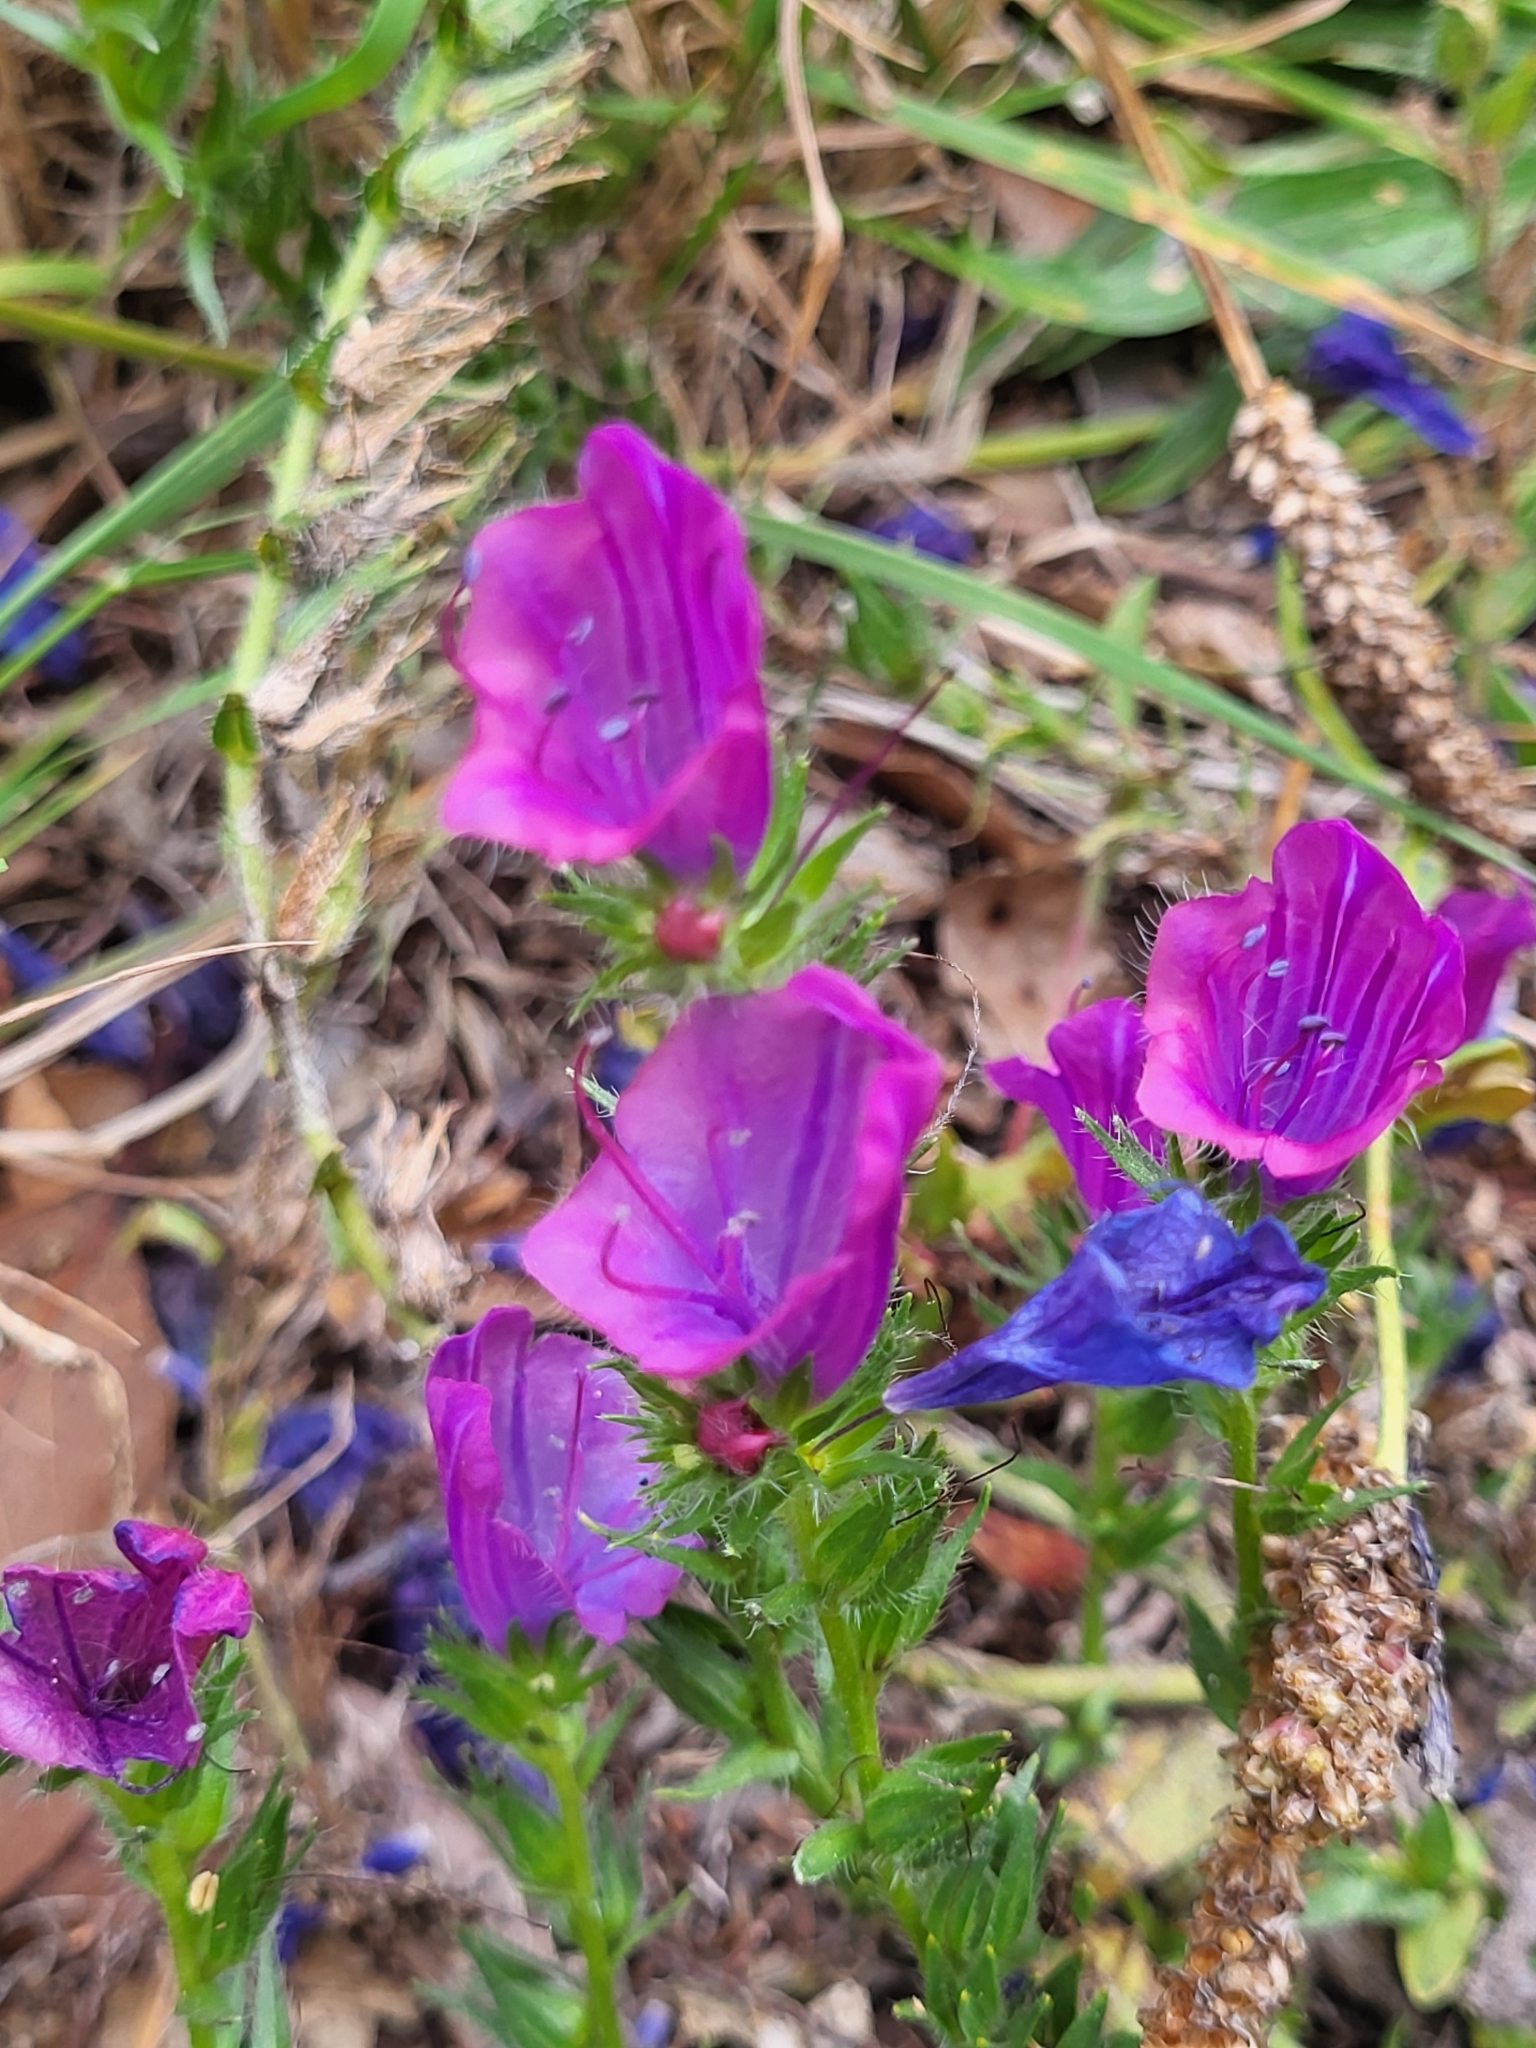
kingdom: Plantae
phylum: Tracheophyta
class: Magnoliopsida
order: Boraginales
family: Boraginaceae
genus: Echium
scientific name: Echium plantagineum
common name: Purple viper's-bugloss
